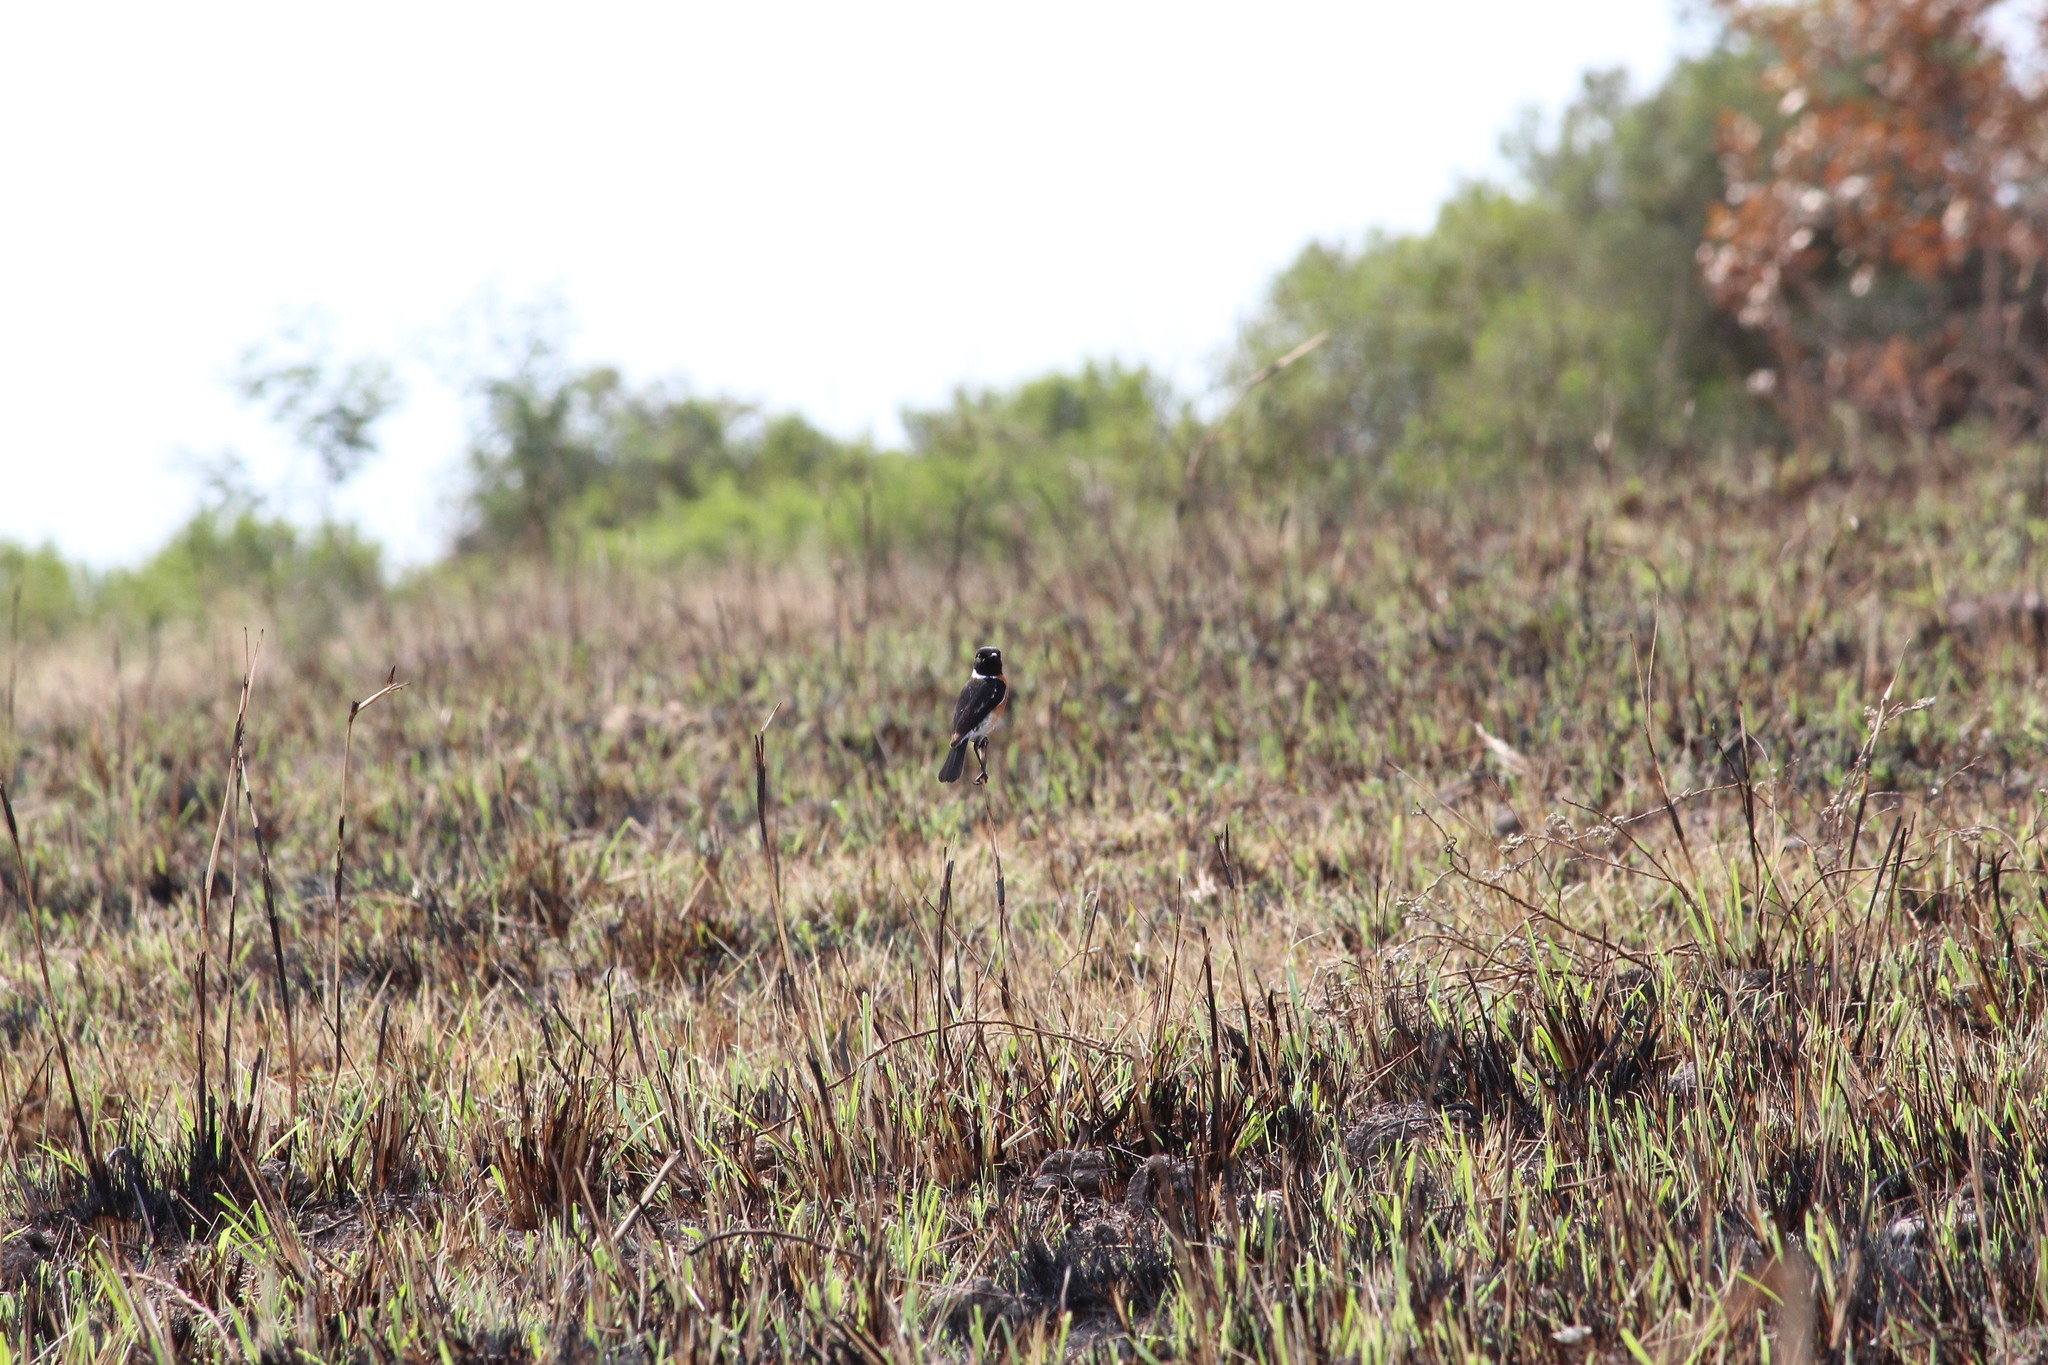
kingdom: Animalia
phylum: Chordata
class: Aves
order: Passeriformes
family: Muscicapidae
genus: Saxicola
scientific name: Saxicola torquatus
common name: African stonechat
